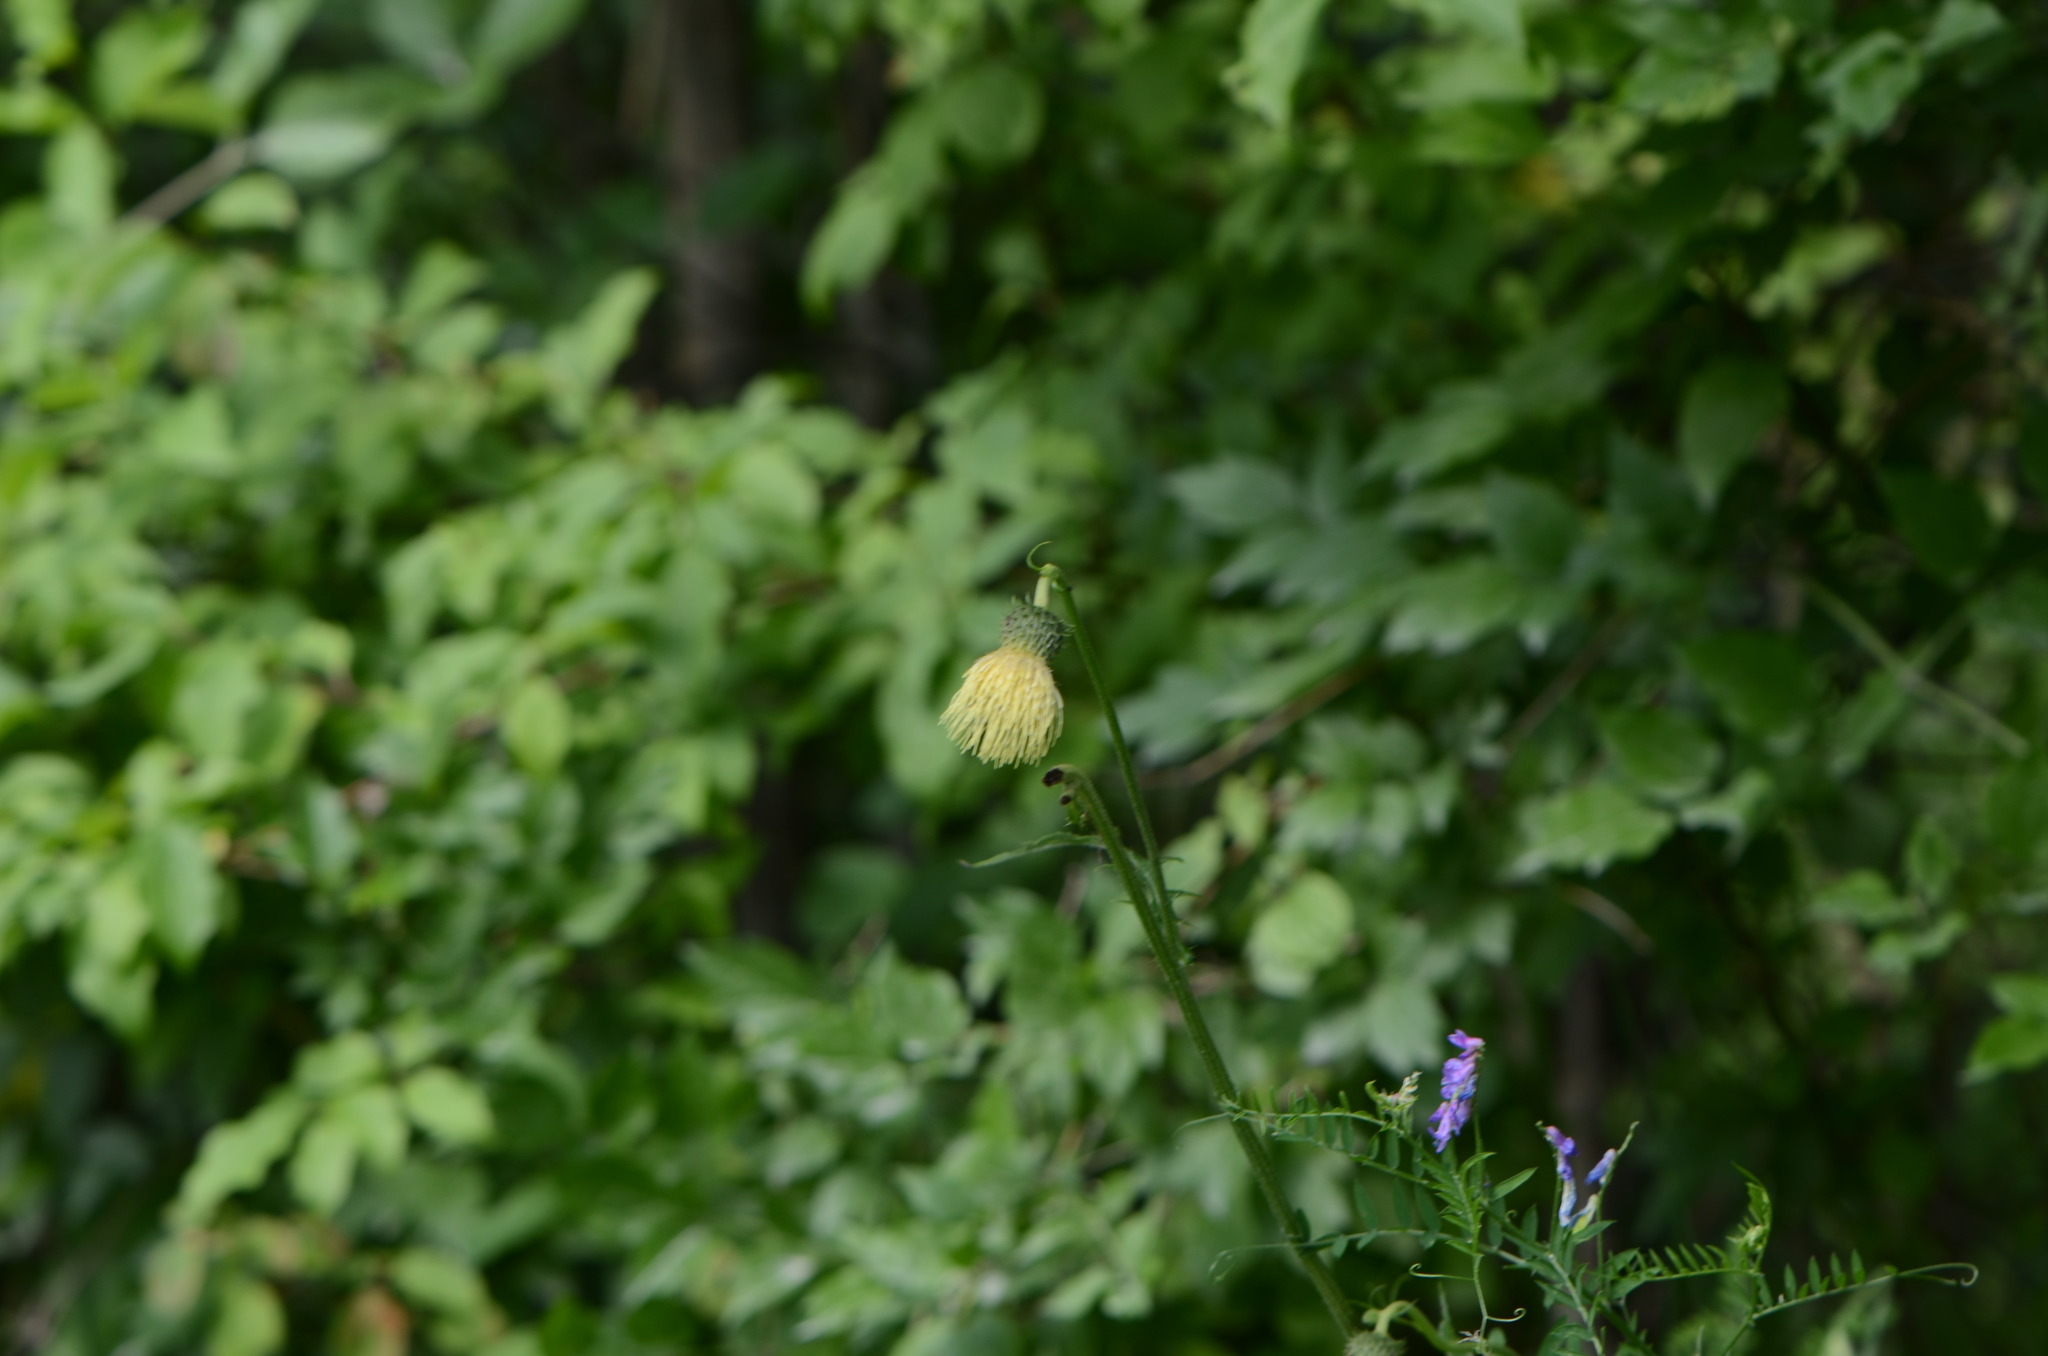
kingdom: Plantae
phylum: Tracheophyta
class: Magnoliopsida
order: Asterales
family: Asteraceae
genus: Cirsium
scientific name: Cirsium erisithales
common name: Yellow thistle
